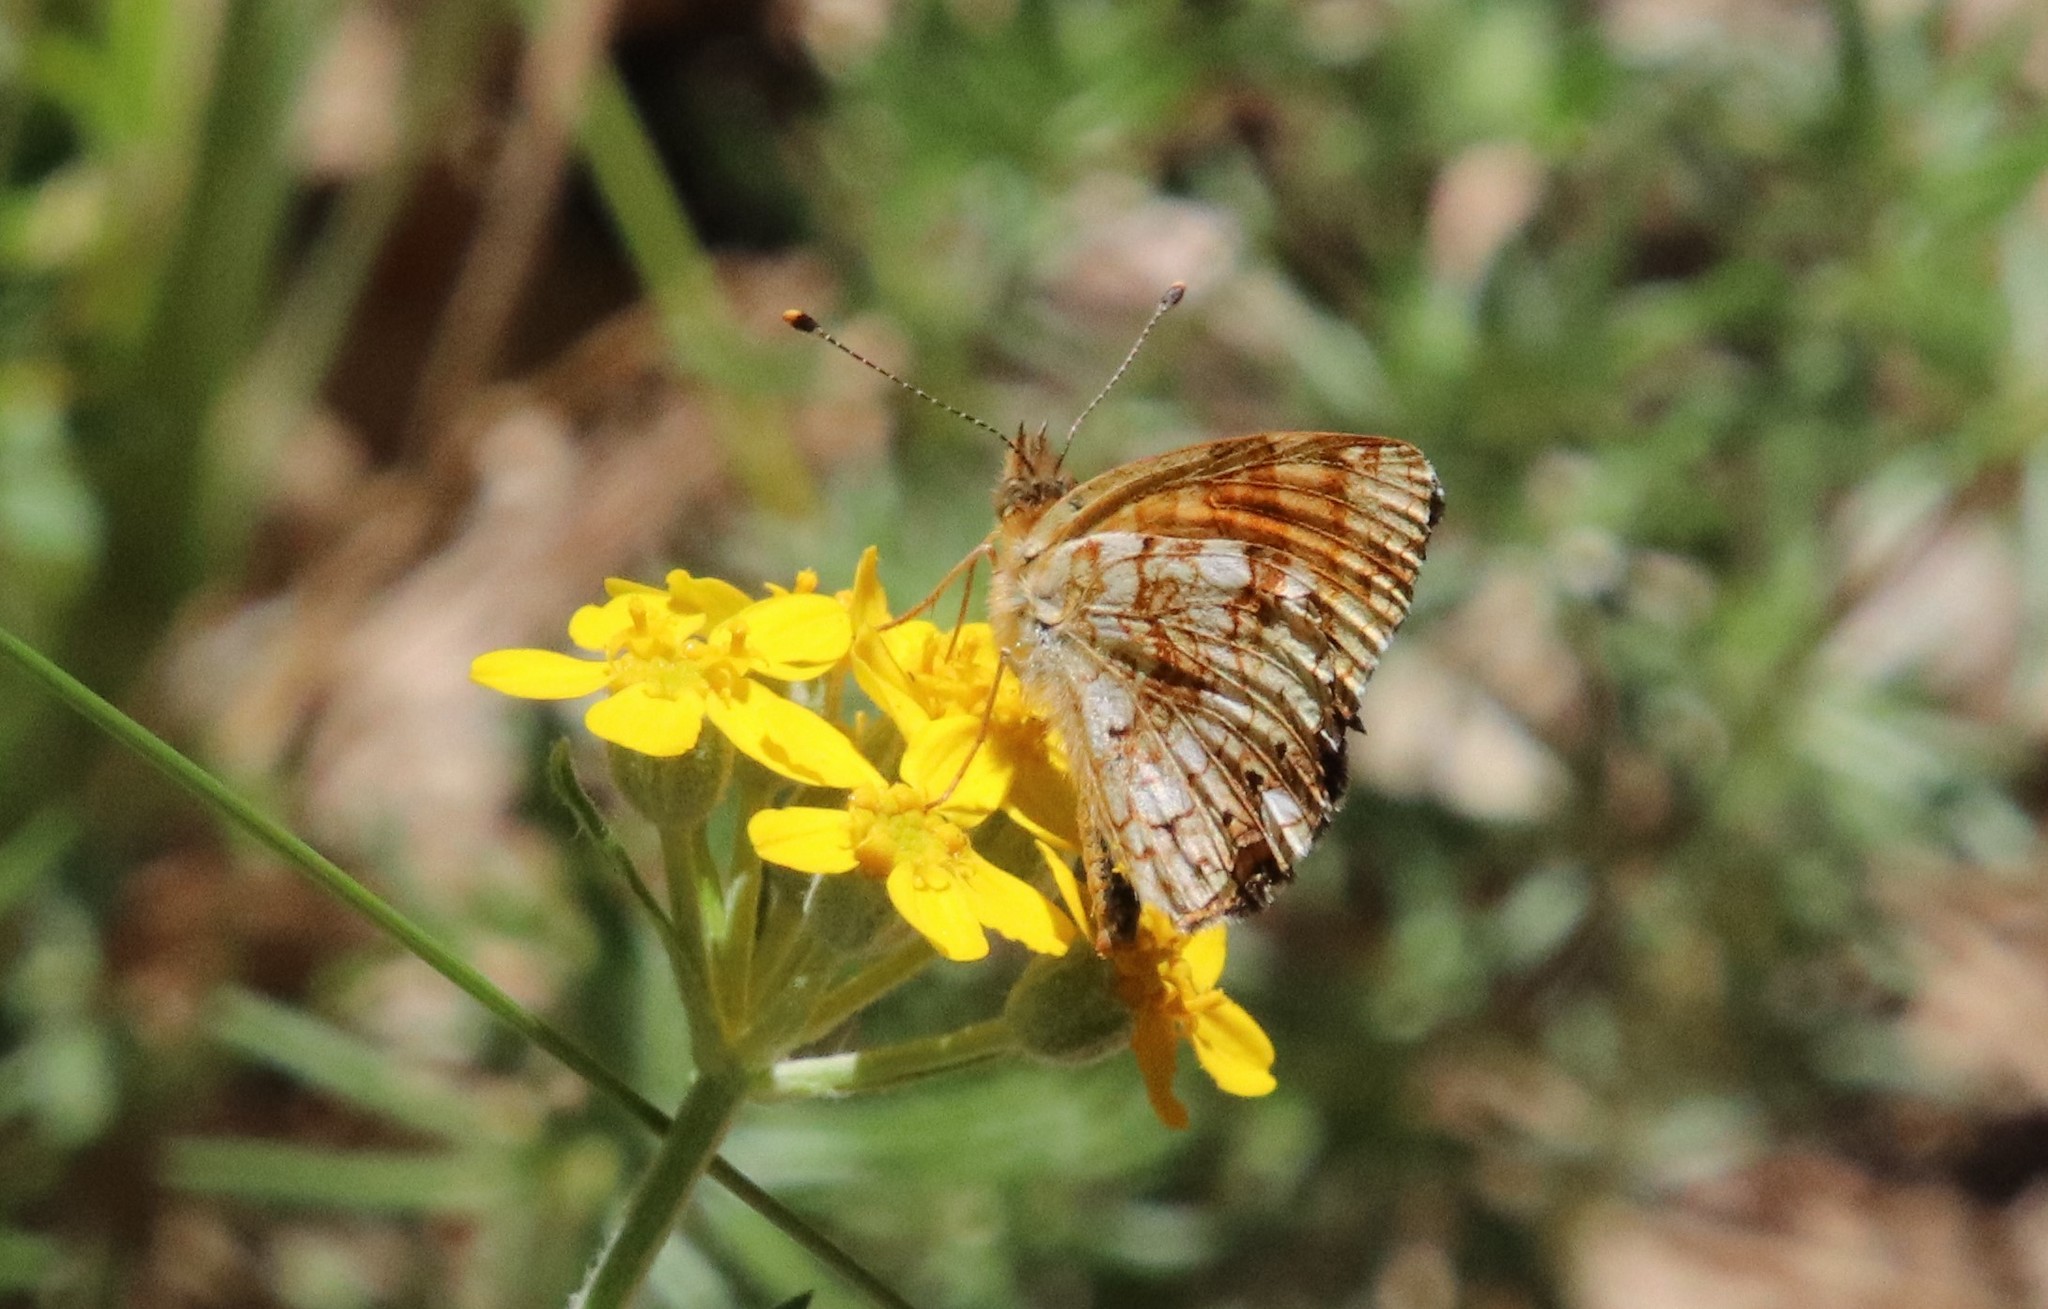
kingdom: Animalia
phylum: Arthropoda
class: Insecta
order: Lepidoptera
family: Nymphalidae
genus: Eresia
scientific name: Eresia aveyrona
